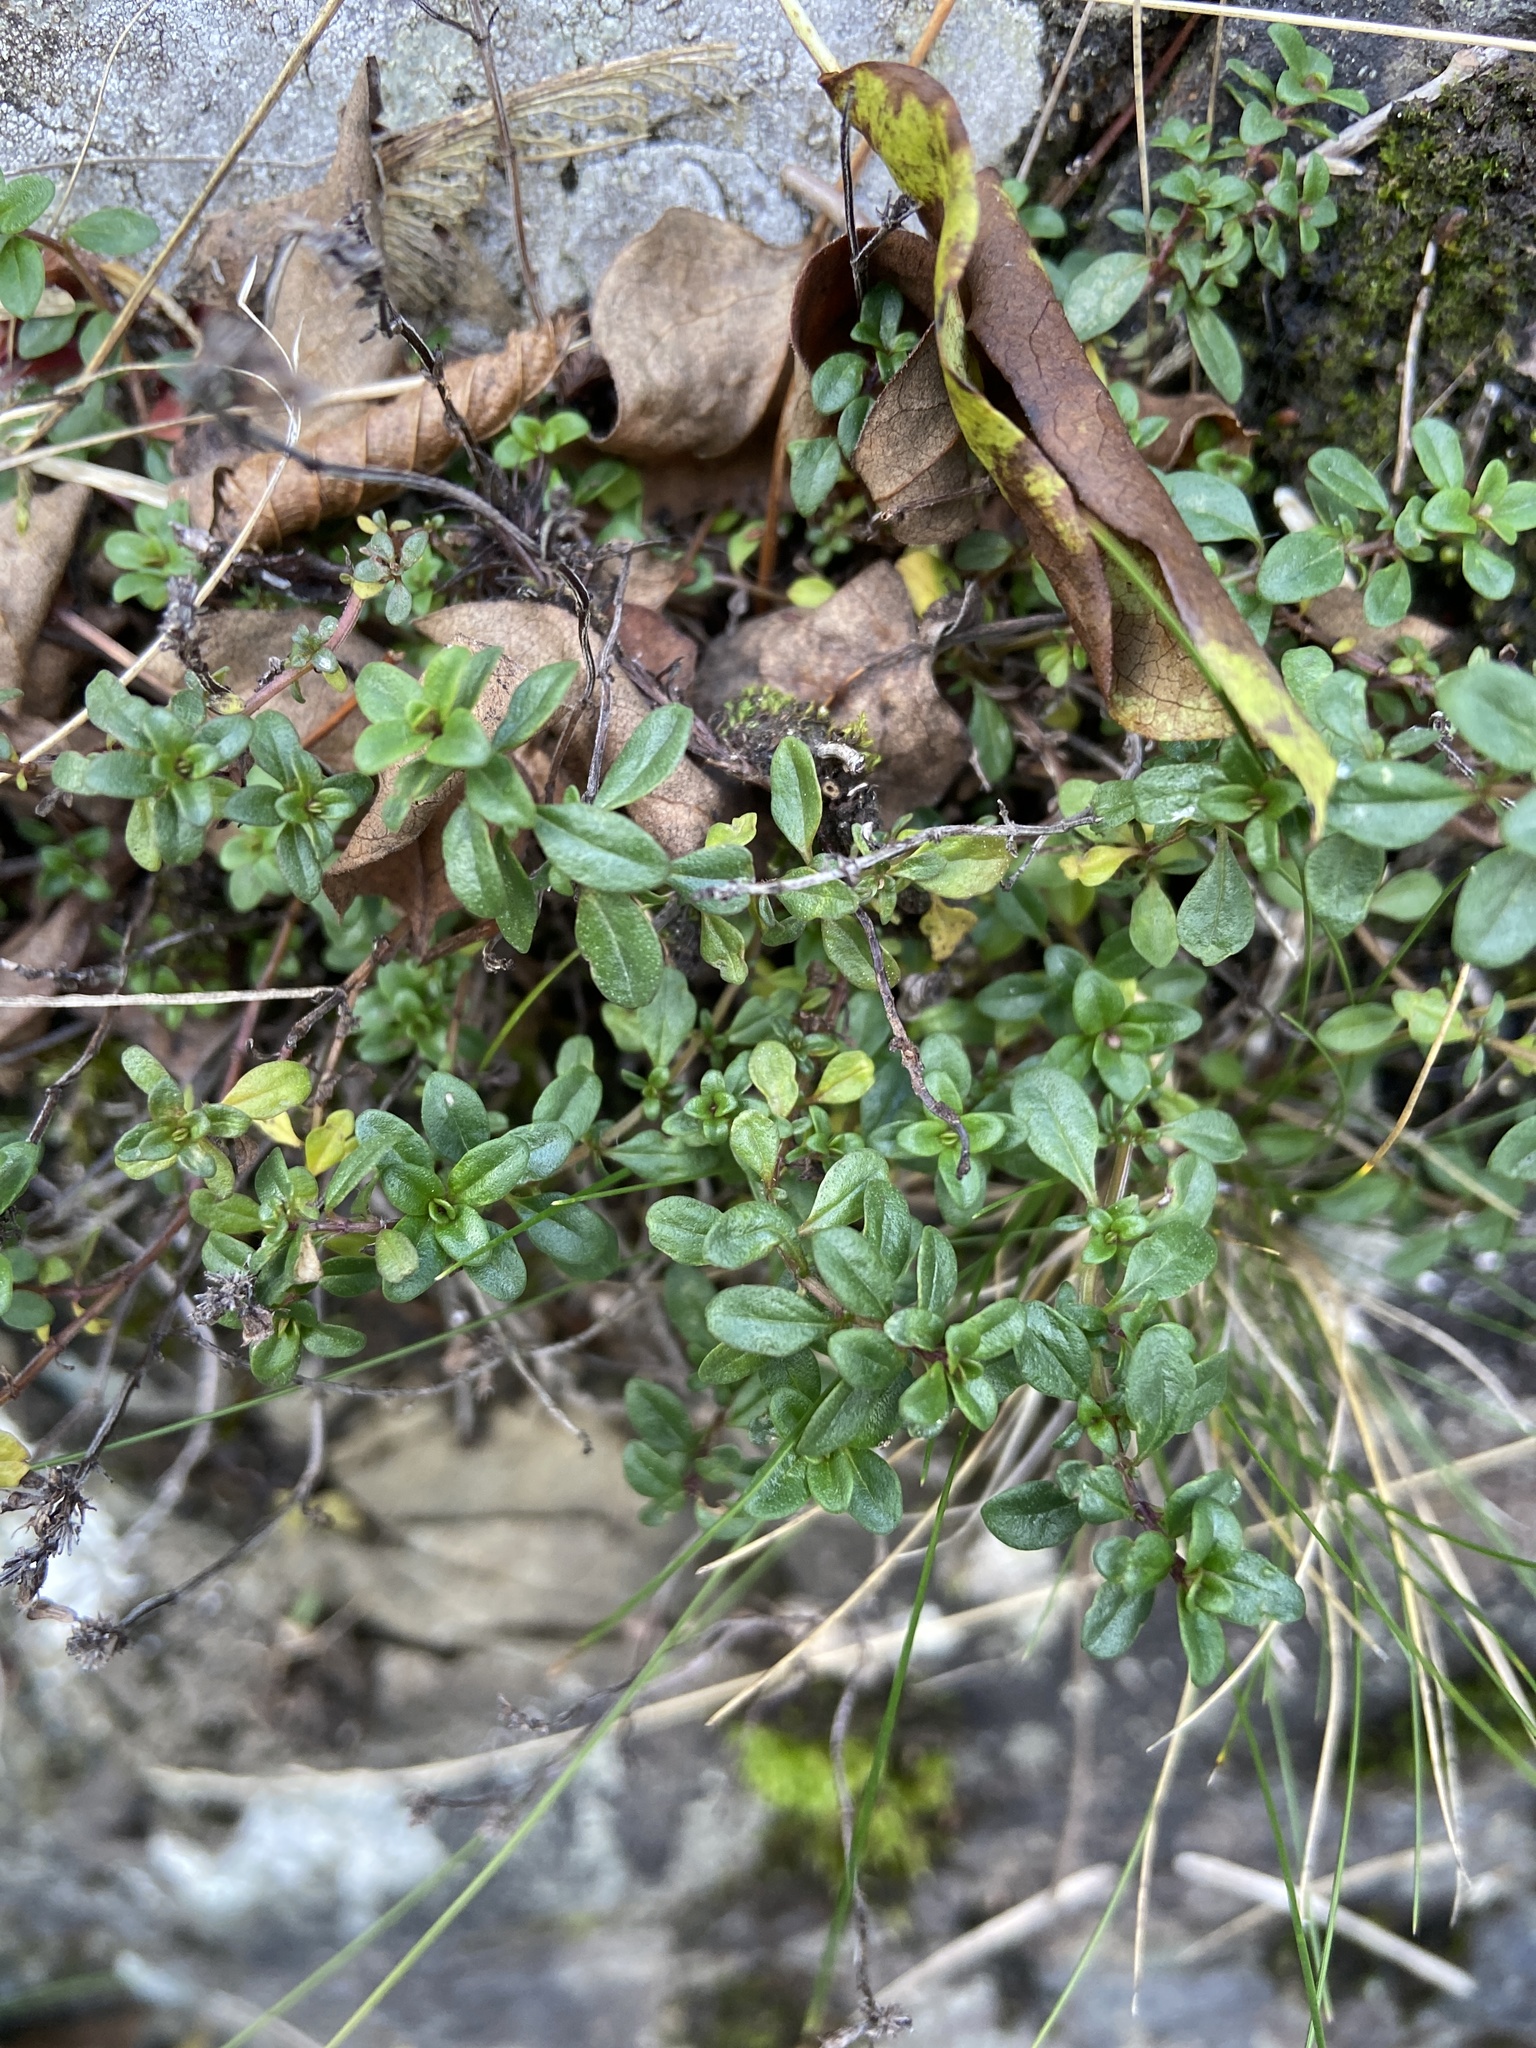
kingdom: Plantae
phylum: Tracheophyta
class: Magnoliopsida
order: Ericales
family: Ericaceae
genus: Vaccinium
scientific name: Vaccinium vitis-idaea
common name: Cowberry
